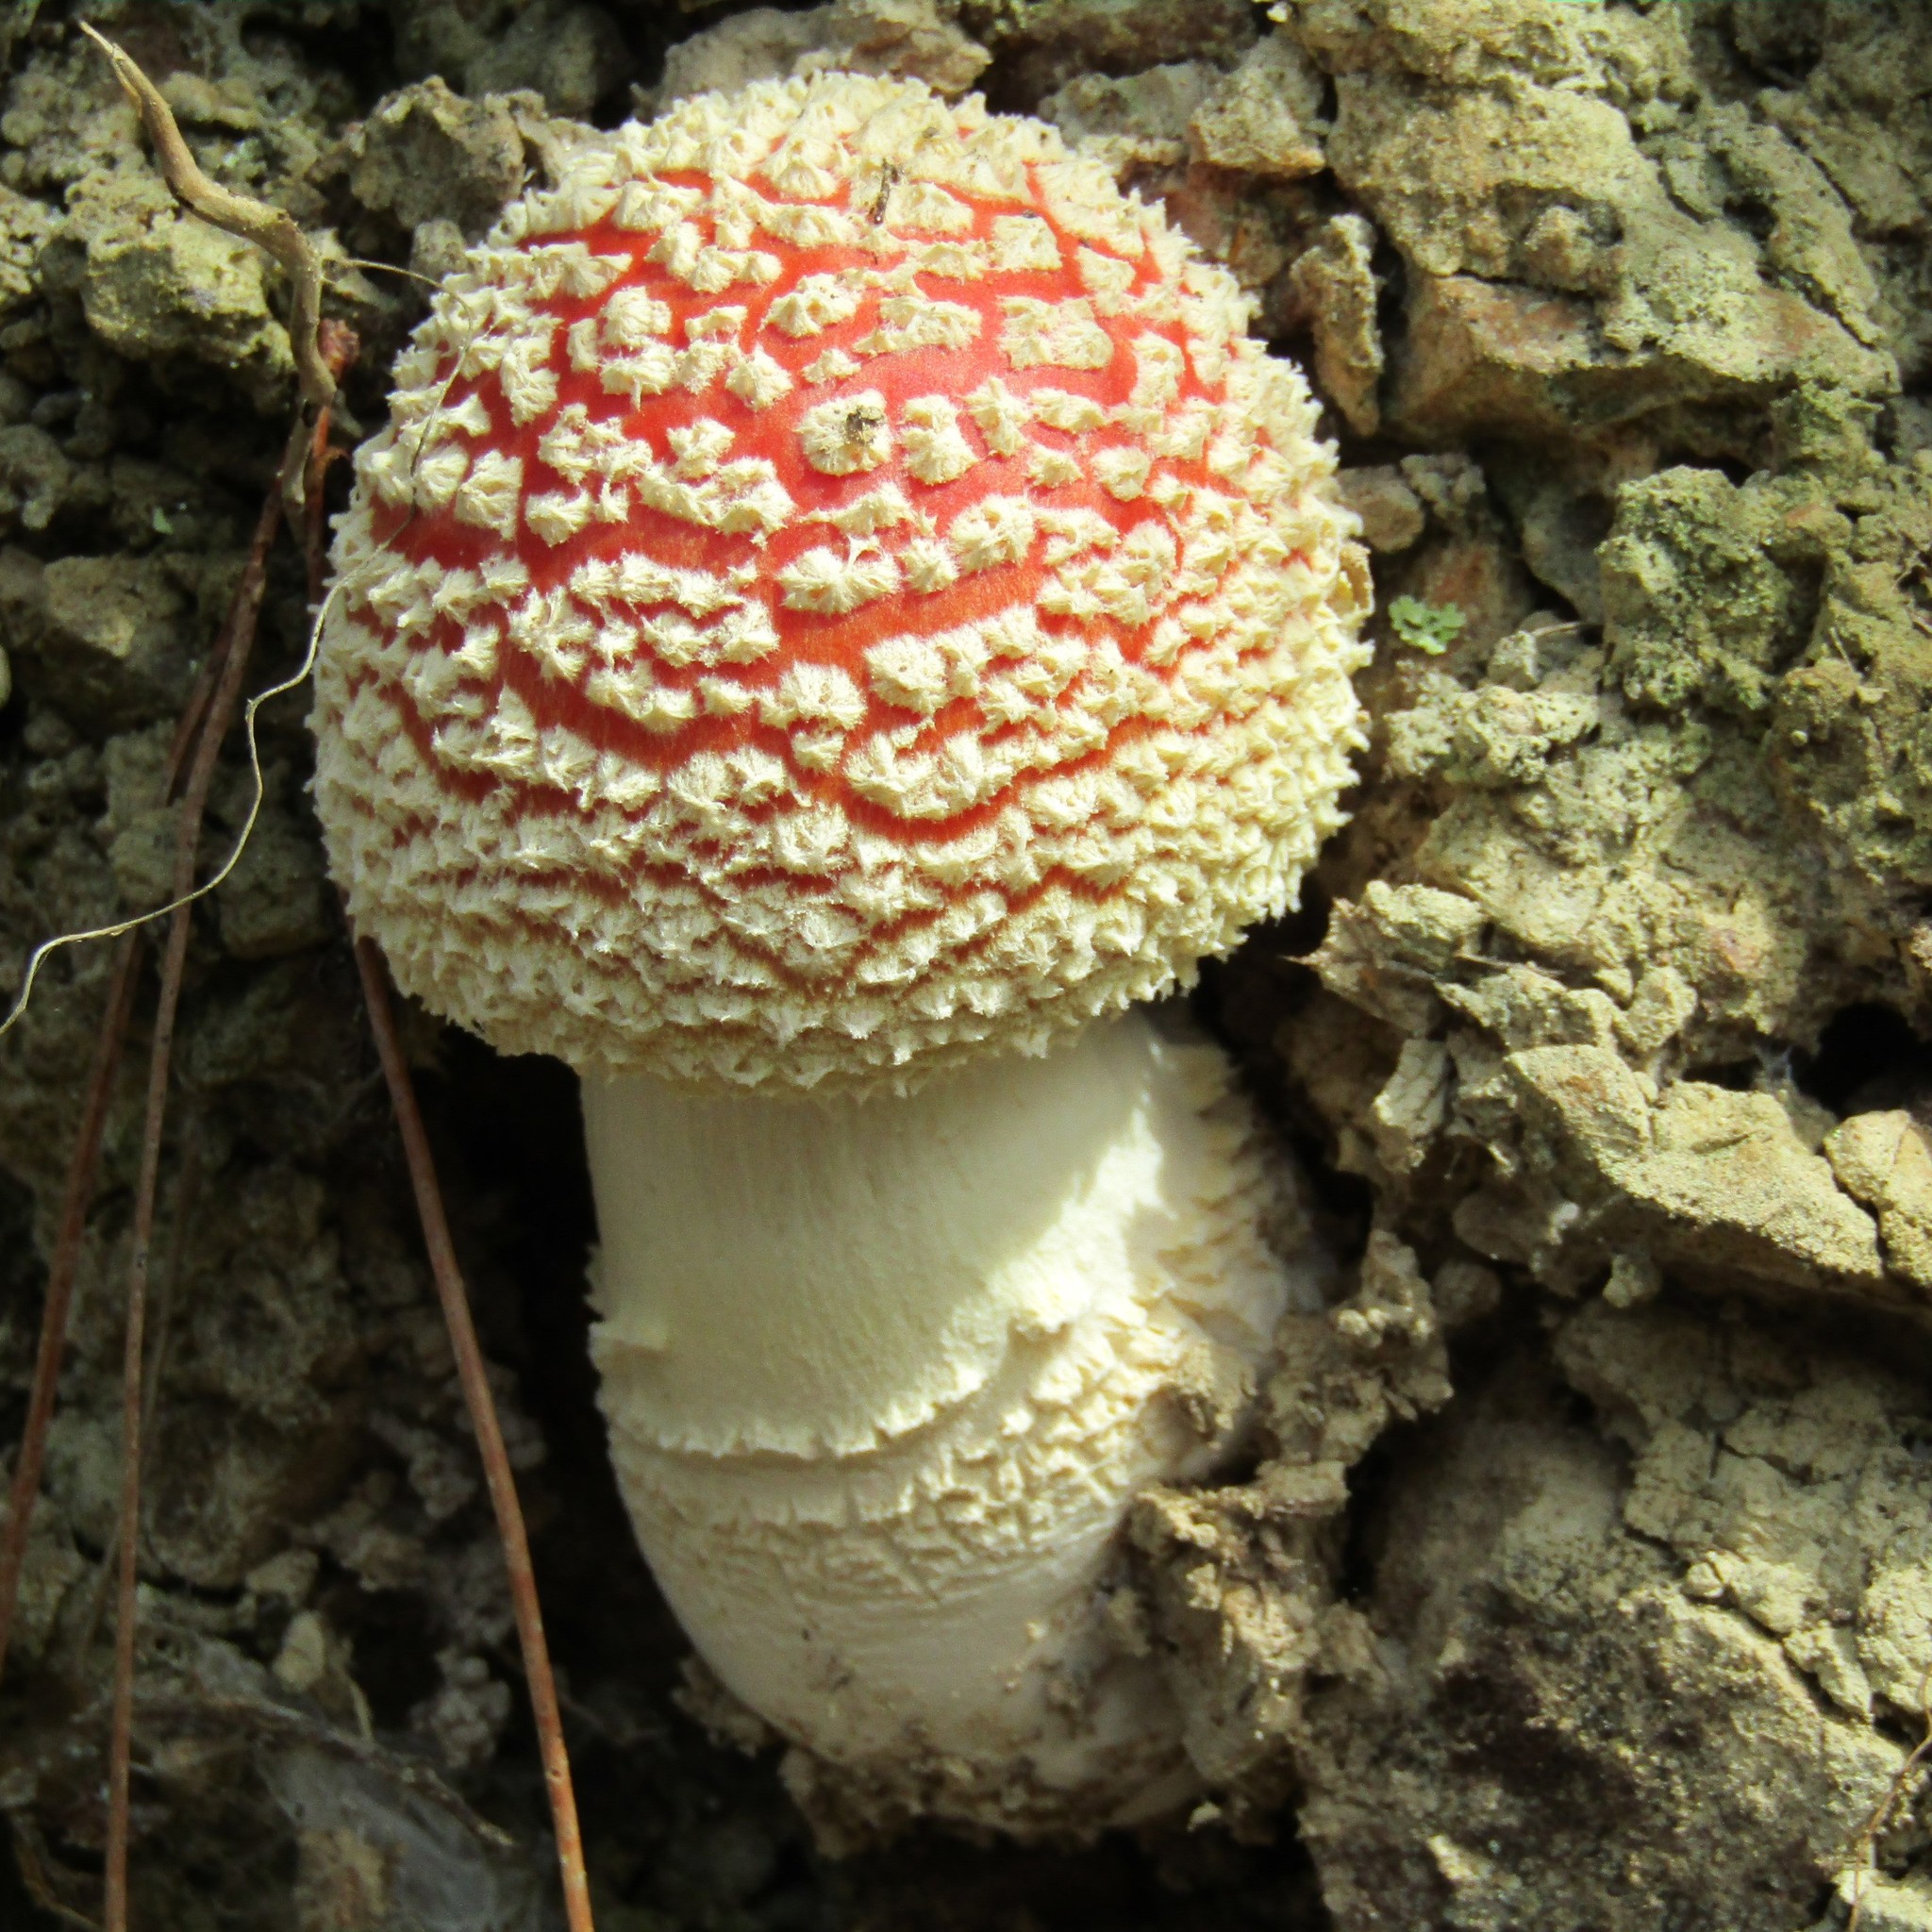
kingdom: Fungi
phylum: Basidiomycota
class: Agaricomycetes
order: Agaricales
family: Amanitaceae
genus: Amanita
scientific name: Amanita muscaria
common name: Fly agaric
